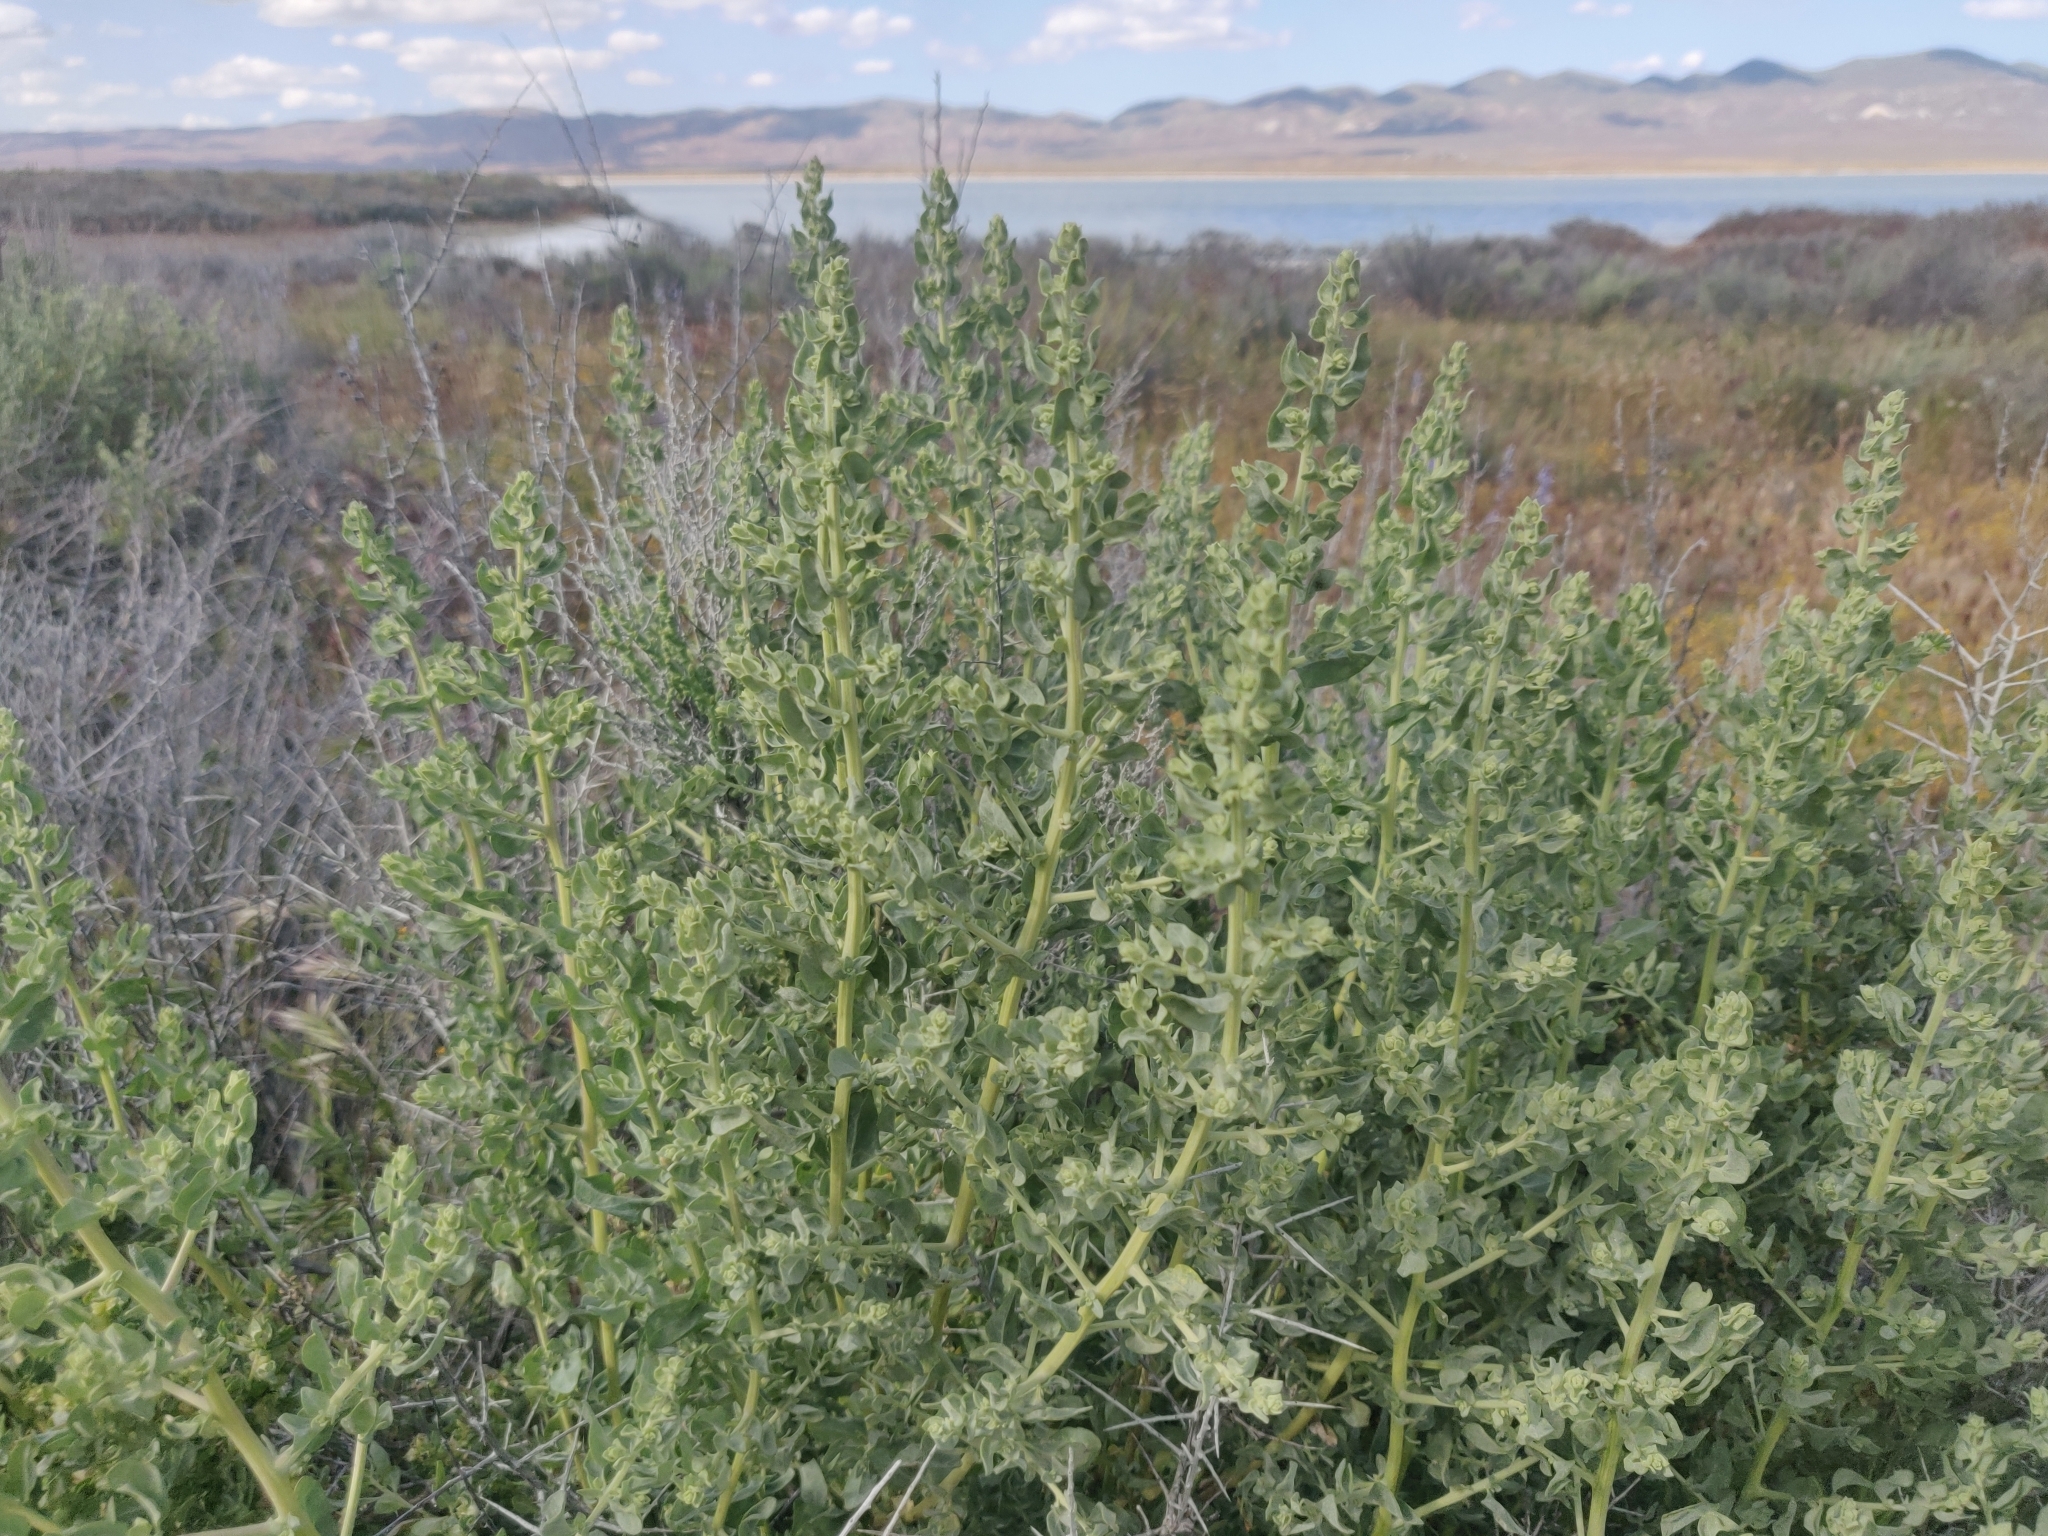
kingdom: Plantae
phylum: Tracheophyta
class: Magnoliopsida
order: Caryophyllales
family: Amaranthaceae
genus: Atriplex
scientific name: Atriplex canescens
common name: Four-wing saltbush
